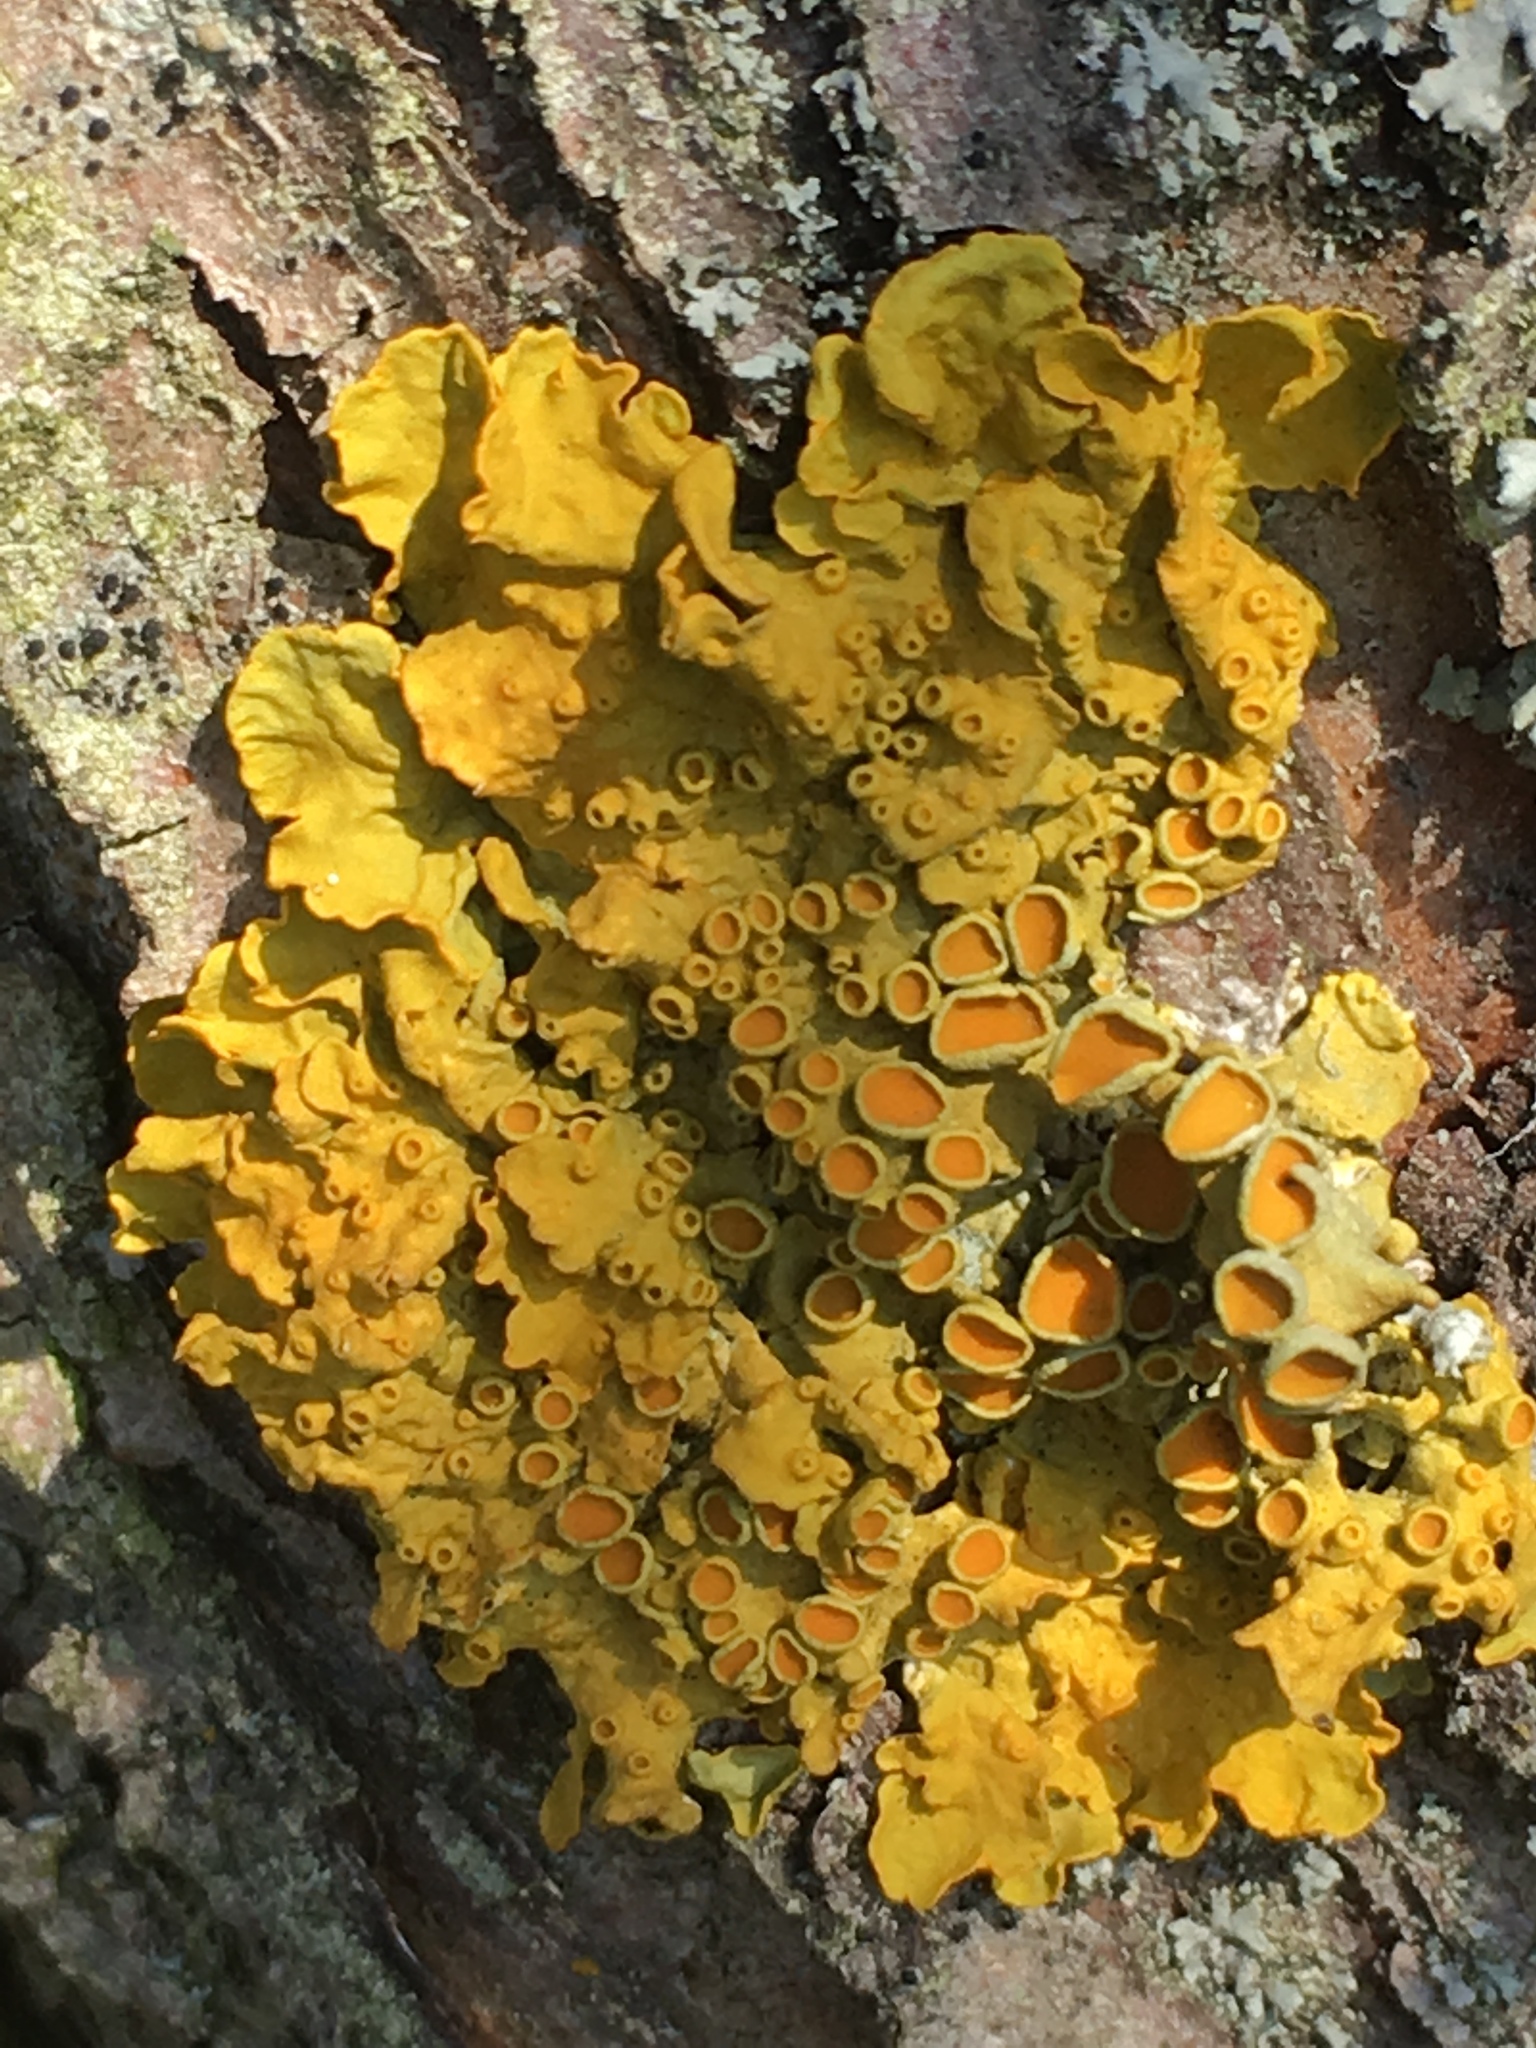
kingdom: Fungi
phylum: Ascomycota
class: Lecanoromycetes
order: Teloschistales
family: Teloschistaceae
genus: Xanthoria
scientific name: Xanthoria parietina
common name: Common orange lichen
